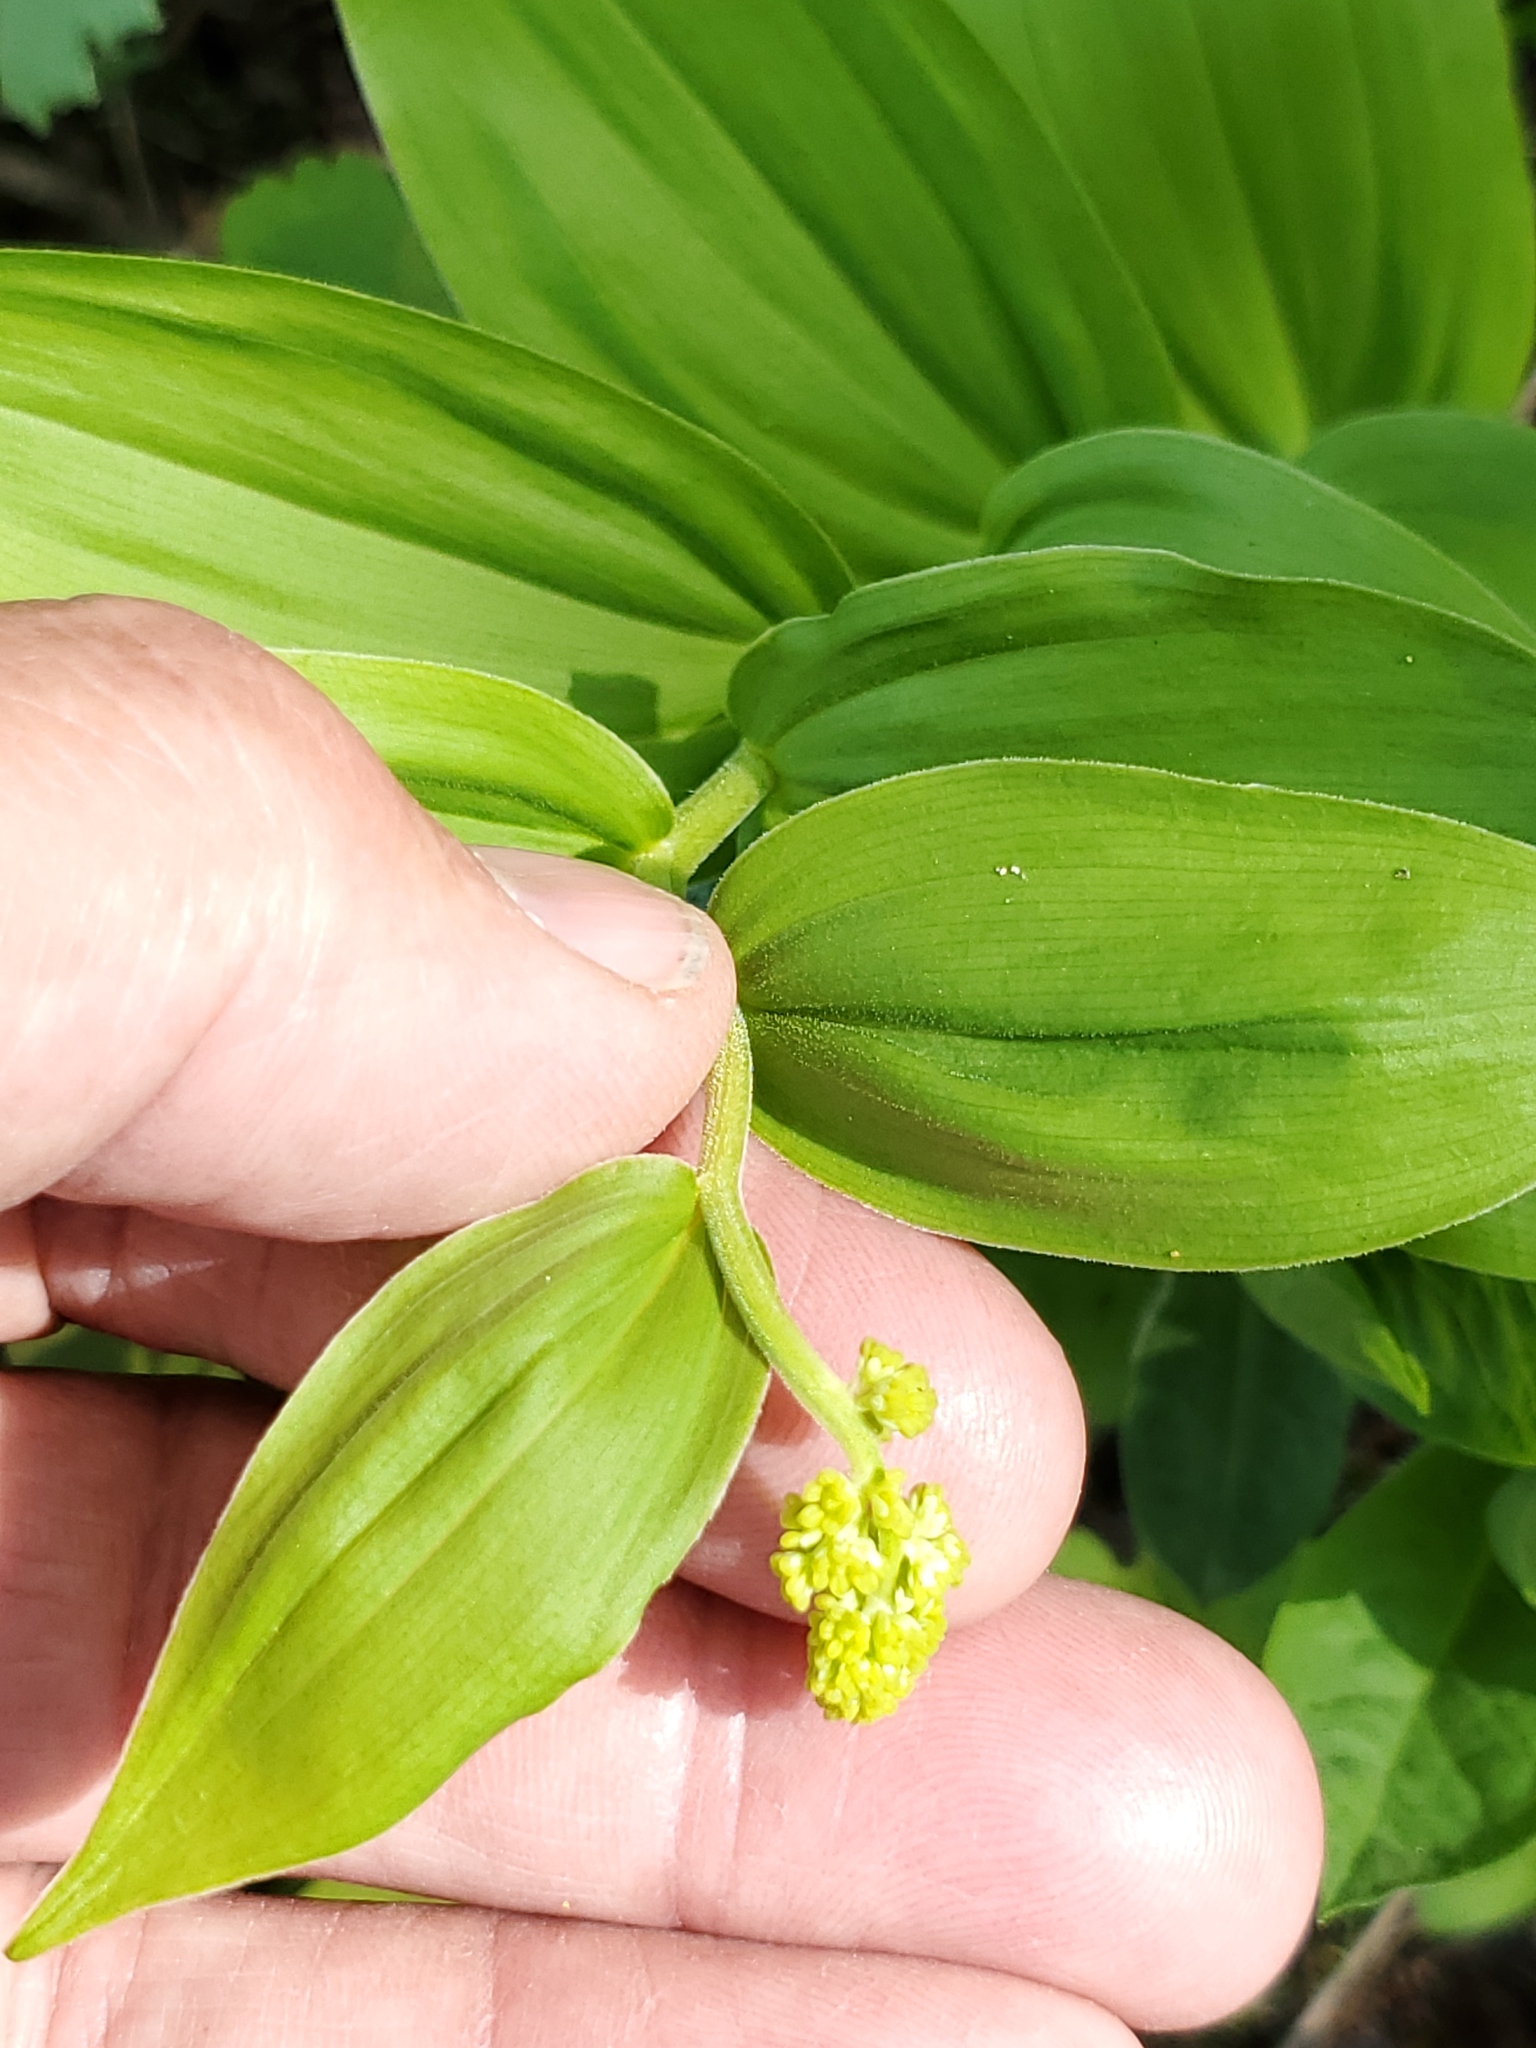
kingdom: Plantae
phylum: Tracheophyta
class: Liliopsida
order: Asparagales
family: Asparagaceae
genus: Maianthemum
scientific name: Maianthemum racemosum
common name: False spikenard
